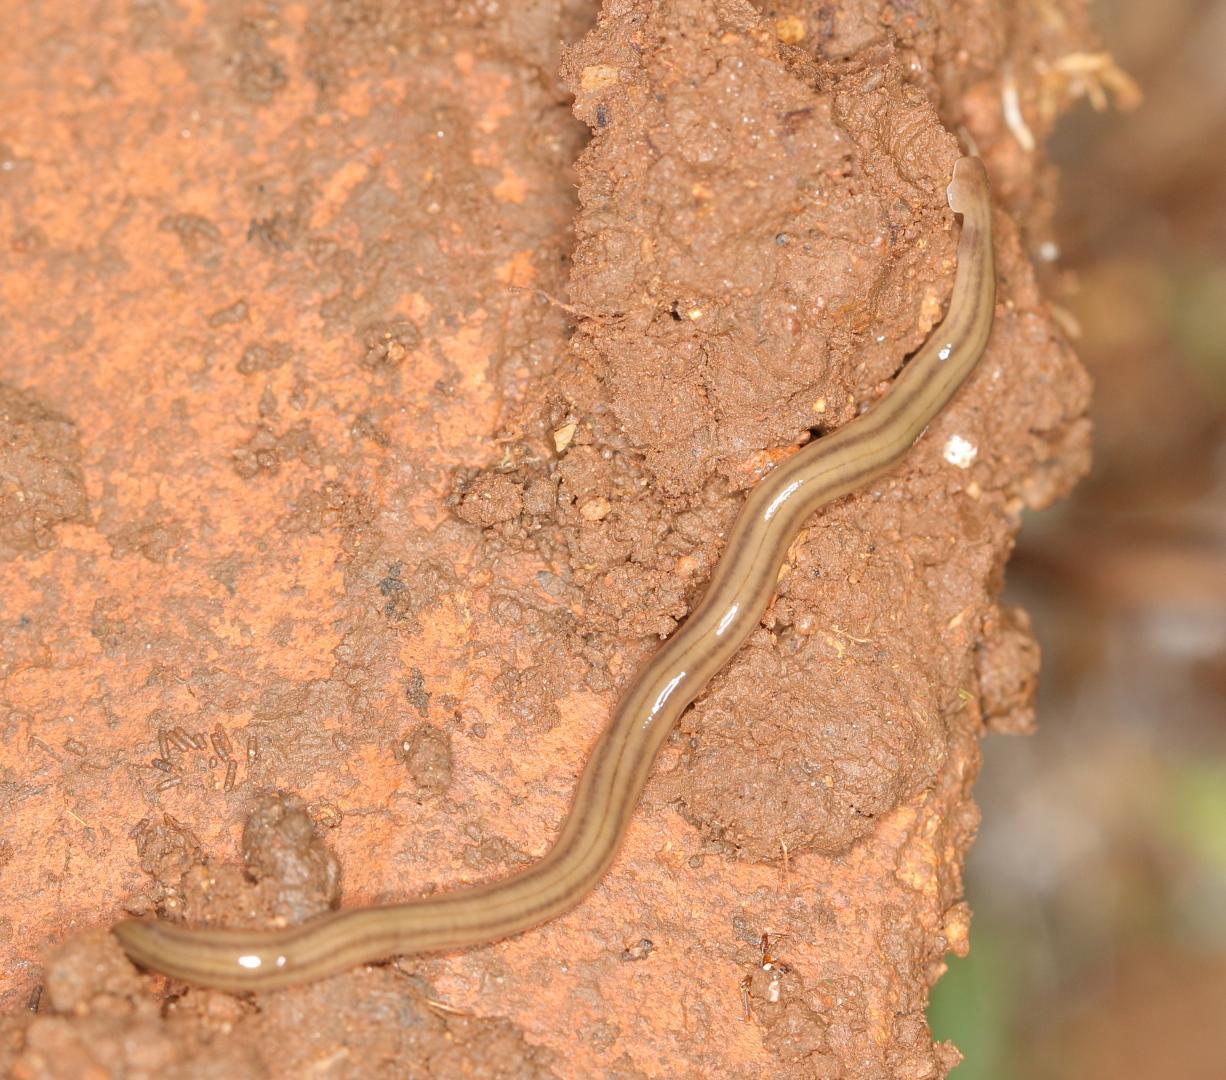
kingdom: Animalia
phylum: Platyhelminthes
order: Tricladida
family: Geoplanidae
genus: Bipalium
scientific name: Bipalium kewense
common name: Hammerhead flatworm
